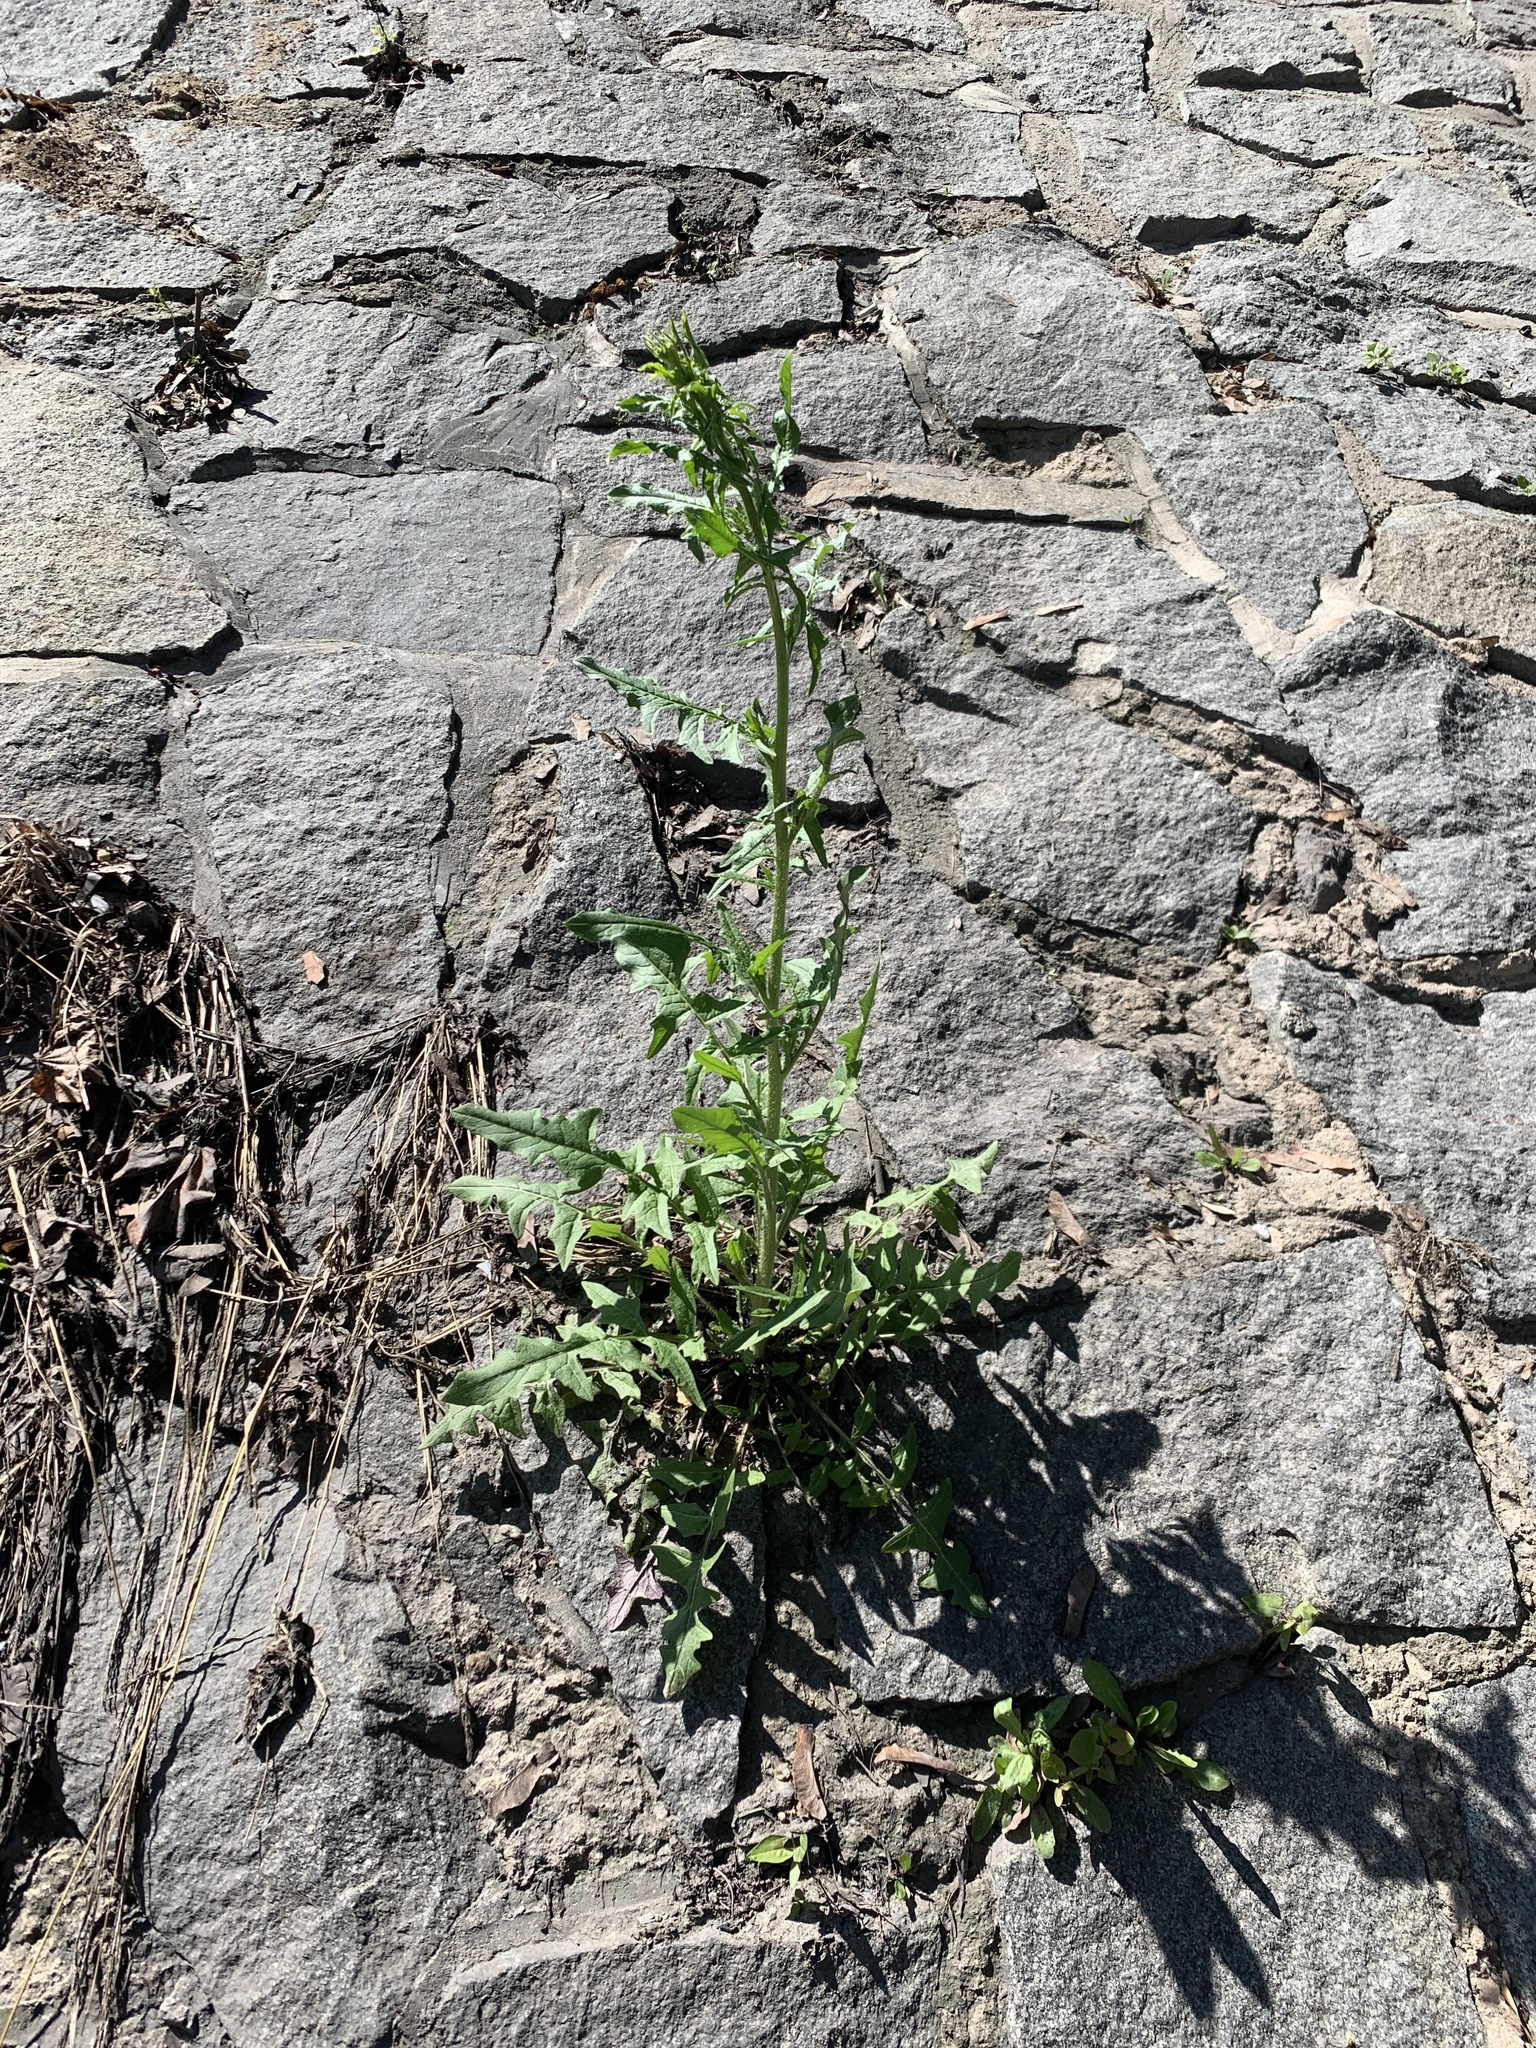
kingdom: Plantae
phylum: Tracheophyta
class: Magnoliopsida
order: Brassicales
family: Brassicaceae
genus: Sisymbrium
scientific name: Sisymbrium loeselii
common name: False london-rocket
